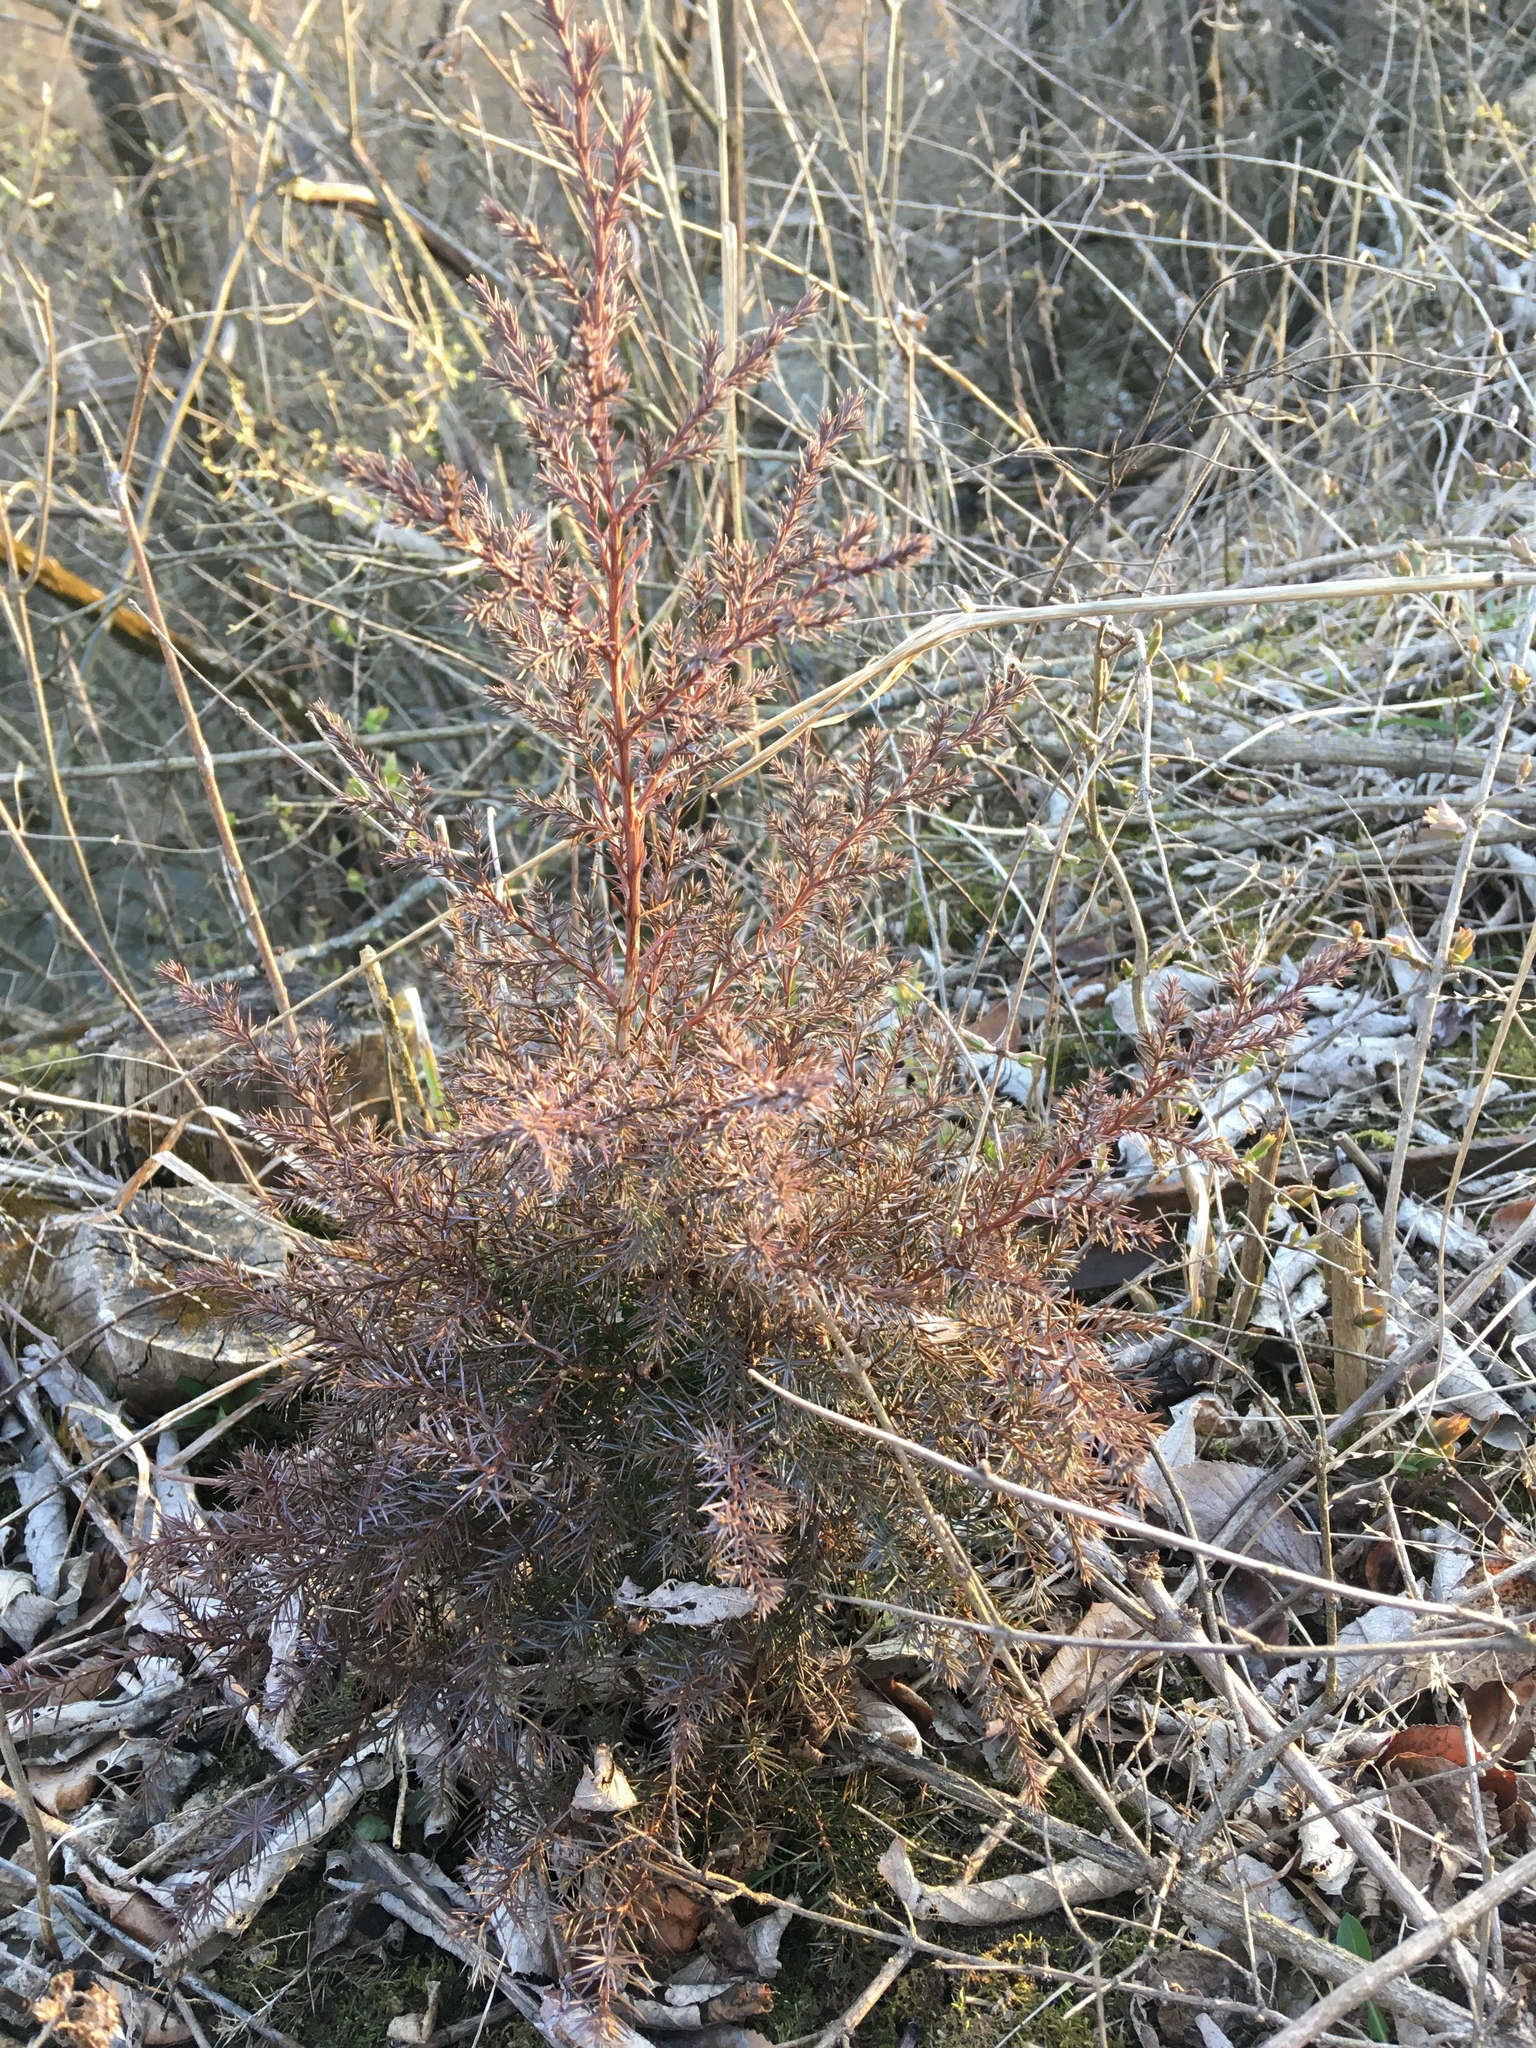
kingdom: Plantae
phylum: Tracheophyta
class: Pinopsida
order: Pinales
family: Cupressaceae
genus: Juniperus
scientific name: Juniperus virginiana
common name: Red juniper
